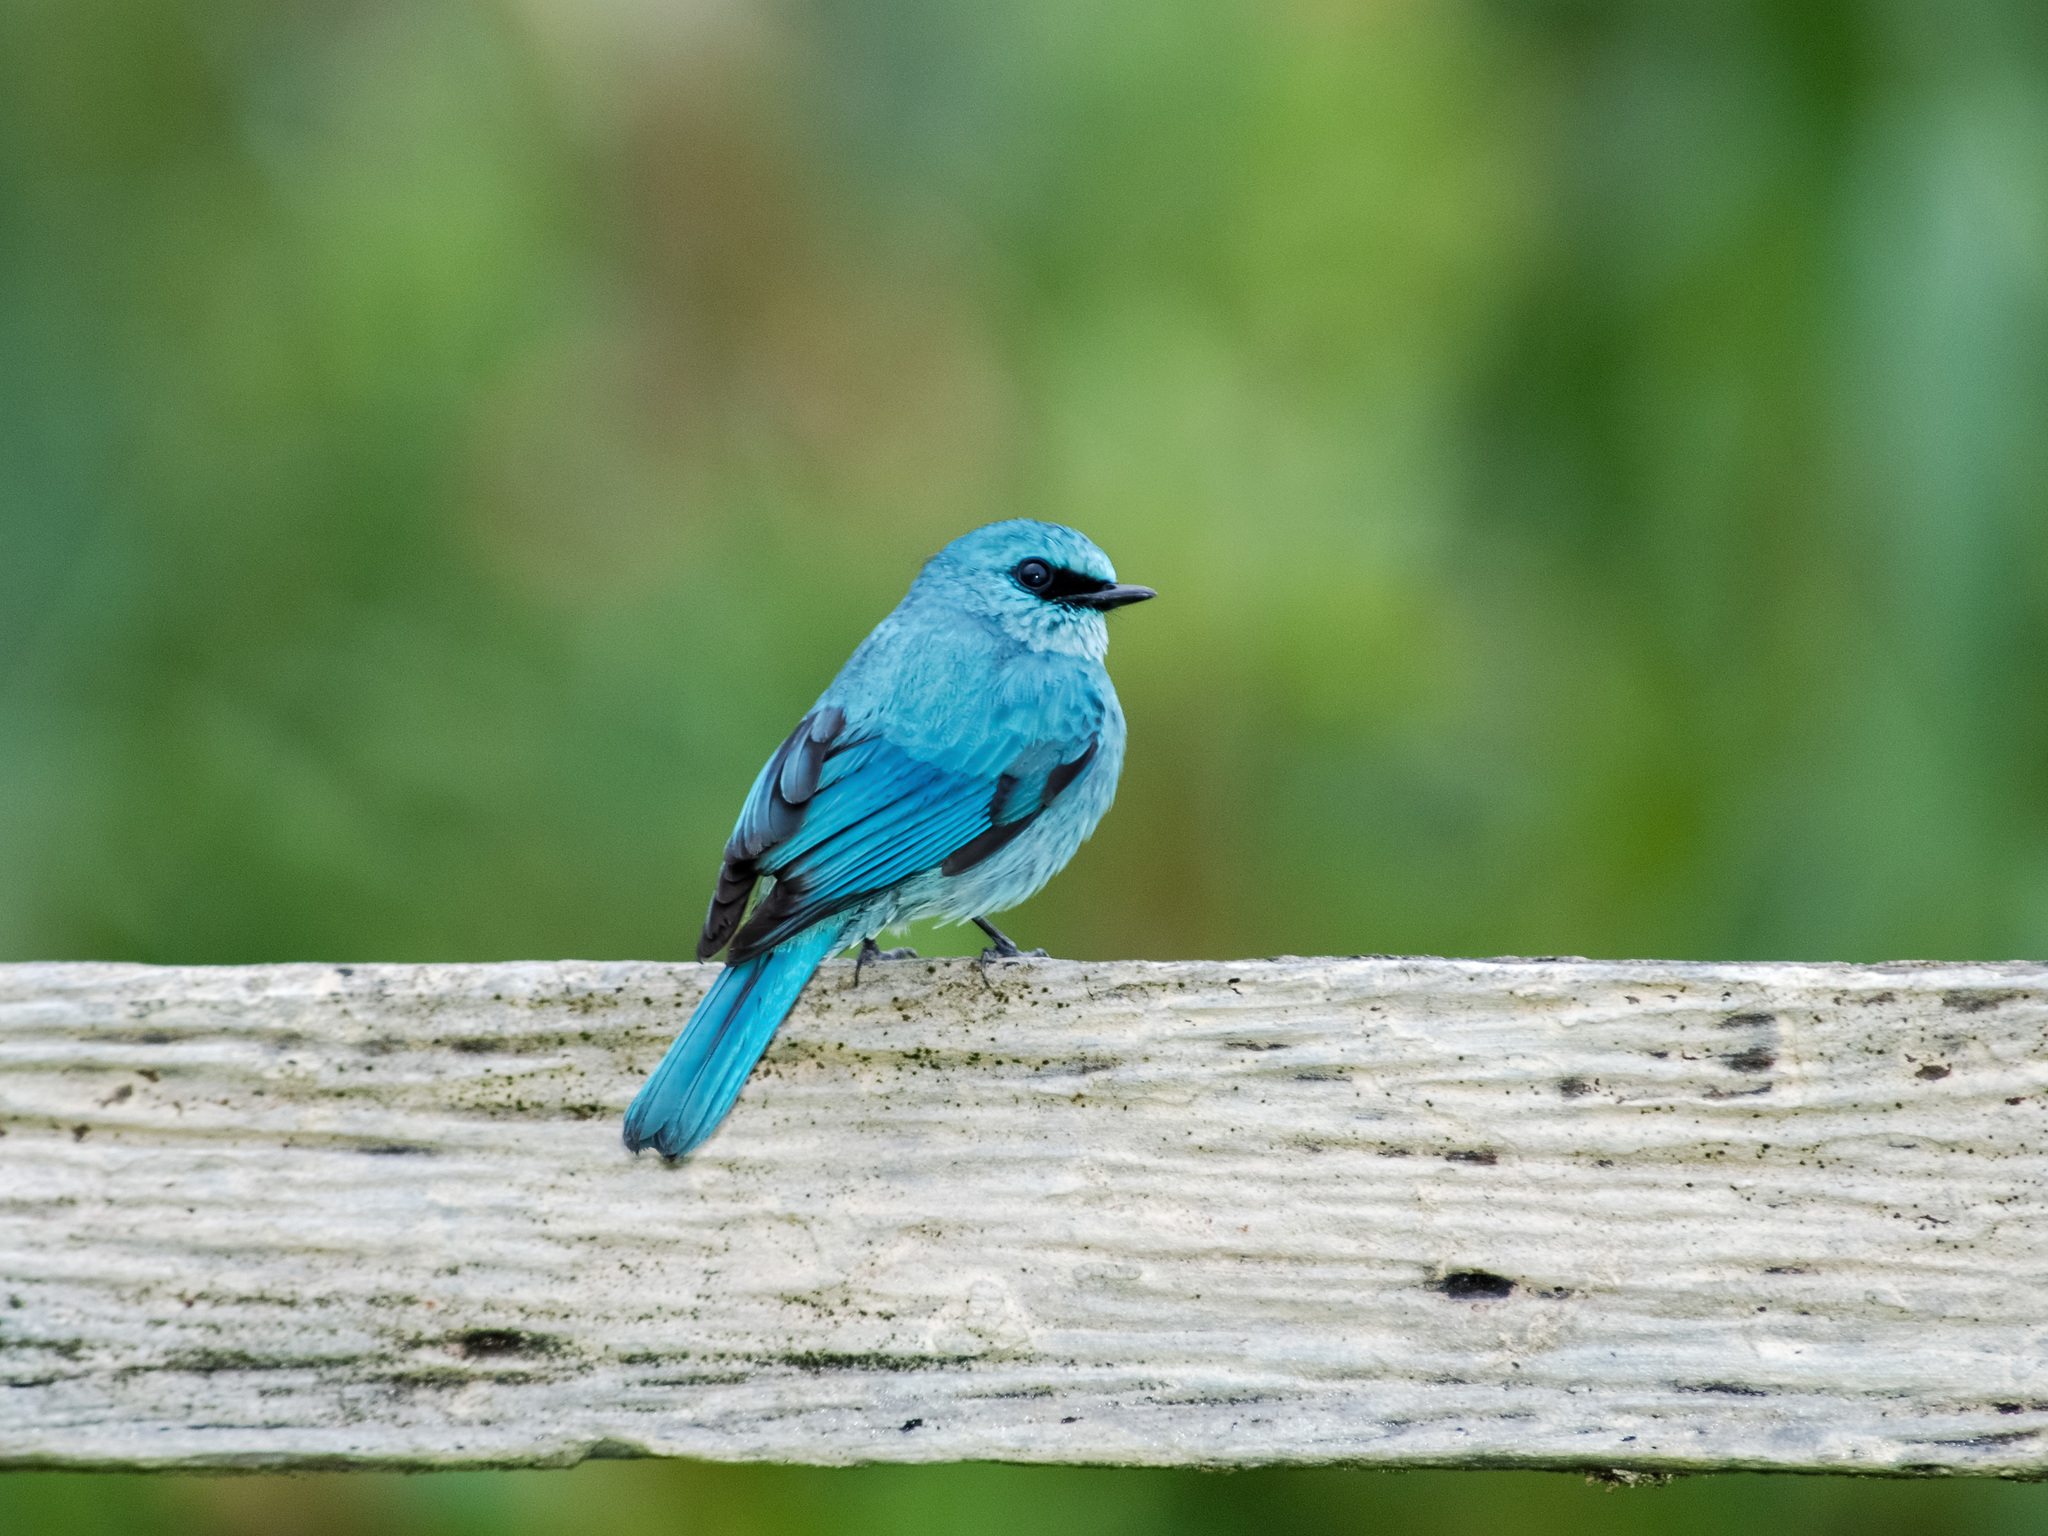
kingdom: Animalia
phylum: Chordata
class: Aves
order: Passeriformes
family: Muscicapidae
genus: Eumyias
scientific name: Eumyias thalassinus
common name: Verditer flycatcher
